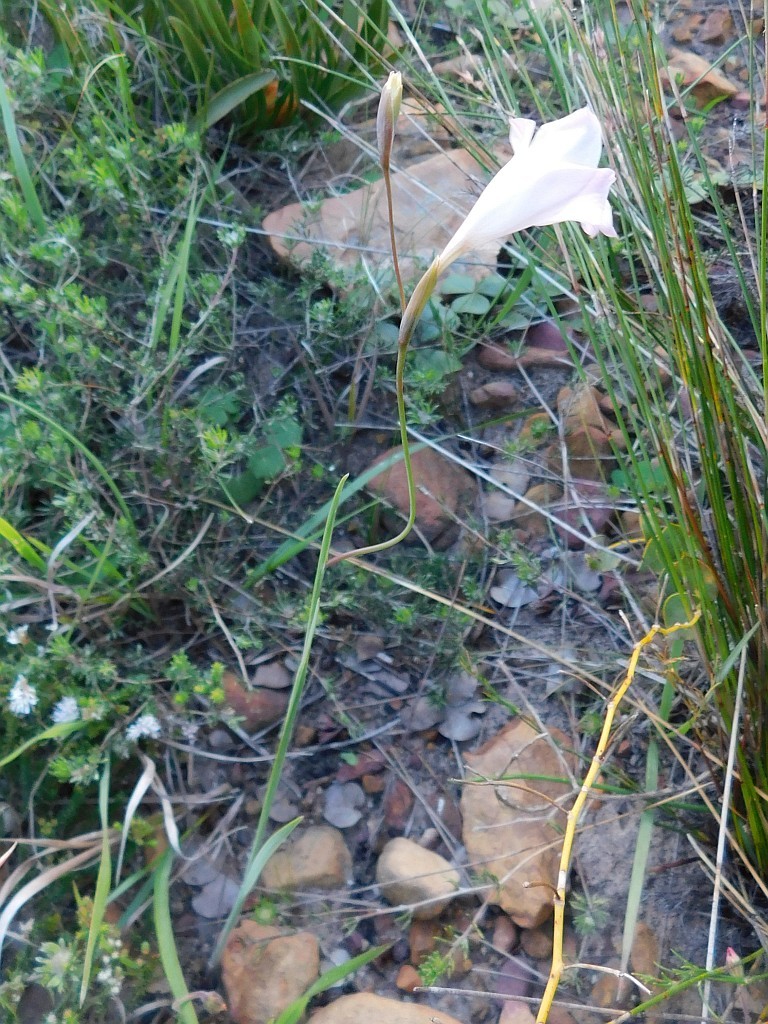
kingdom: Plantae
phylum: Tracheophyta
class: Liliopsida
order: Asparagales
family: Iridaceae
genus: Gladiolus
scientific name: Gladiolus hirsutus
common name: Small pink afrikaner
